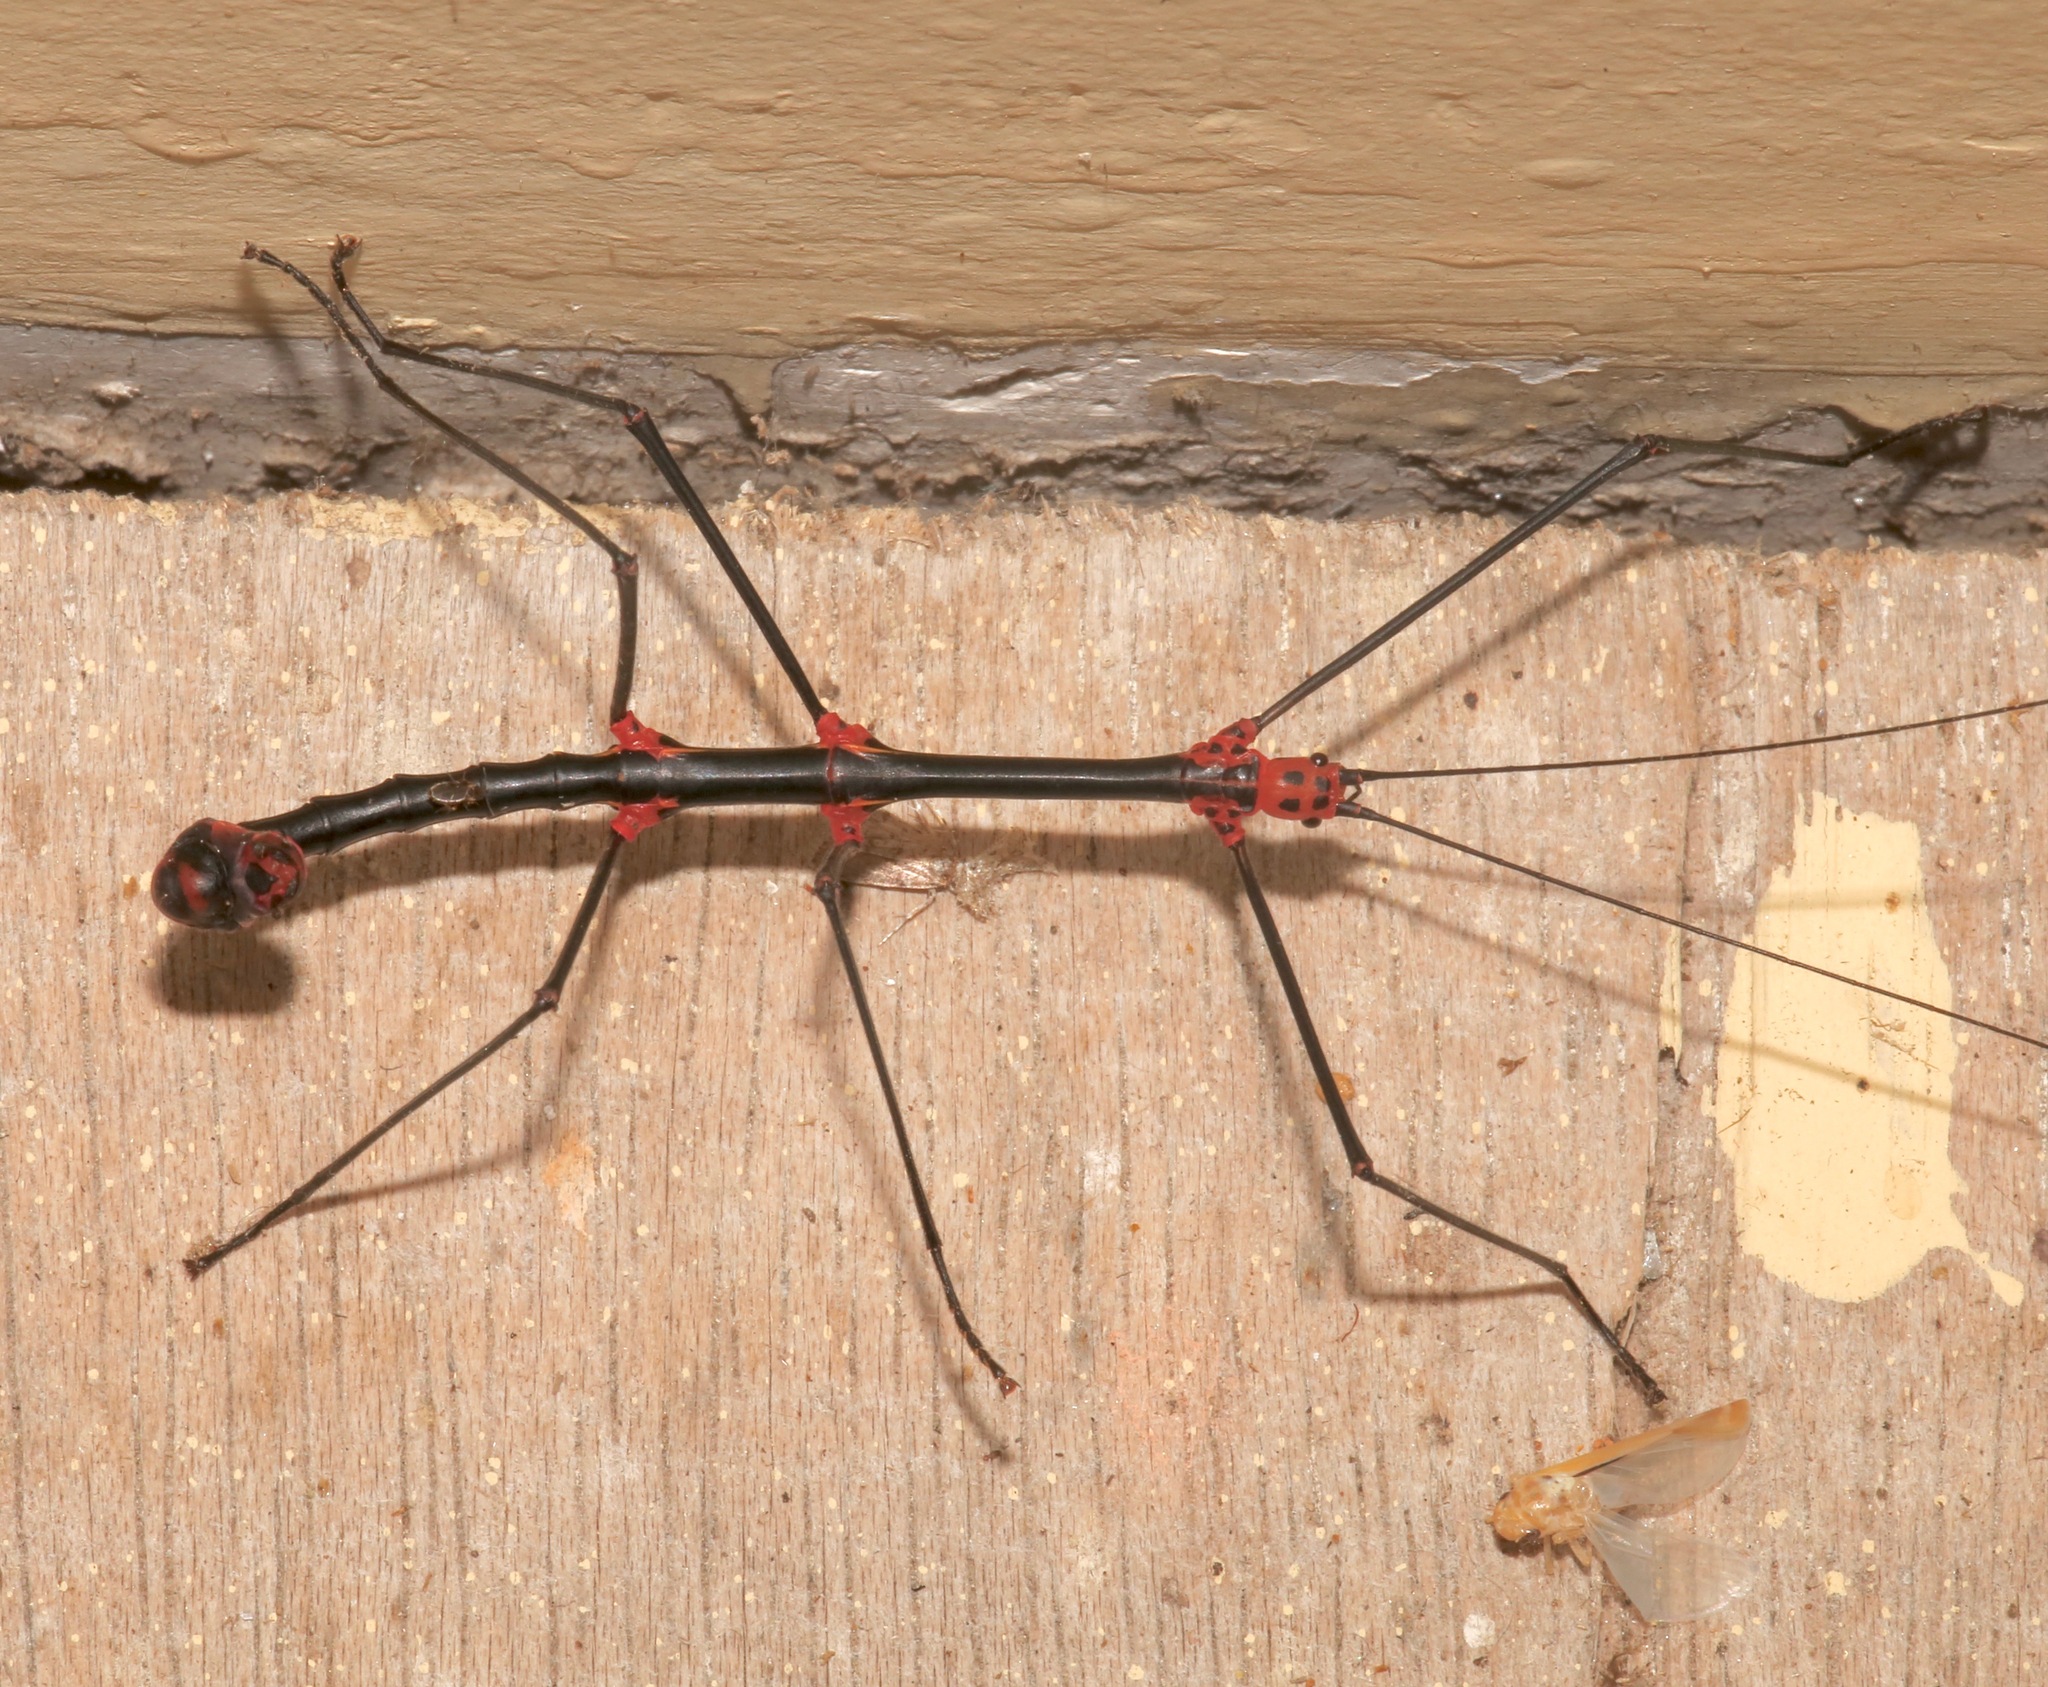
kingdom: Animalia
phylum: Arthropoda
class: Insecta
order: Phasmida
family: Diapheromeridae
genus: Oreophoetes
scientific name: Oreophoetes topoense
